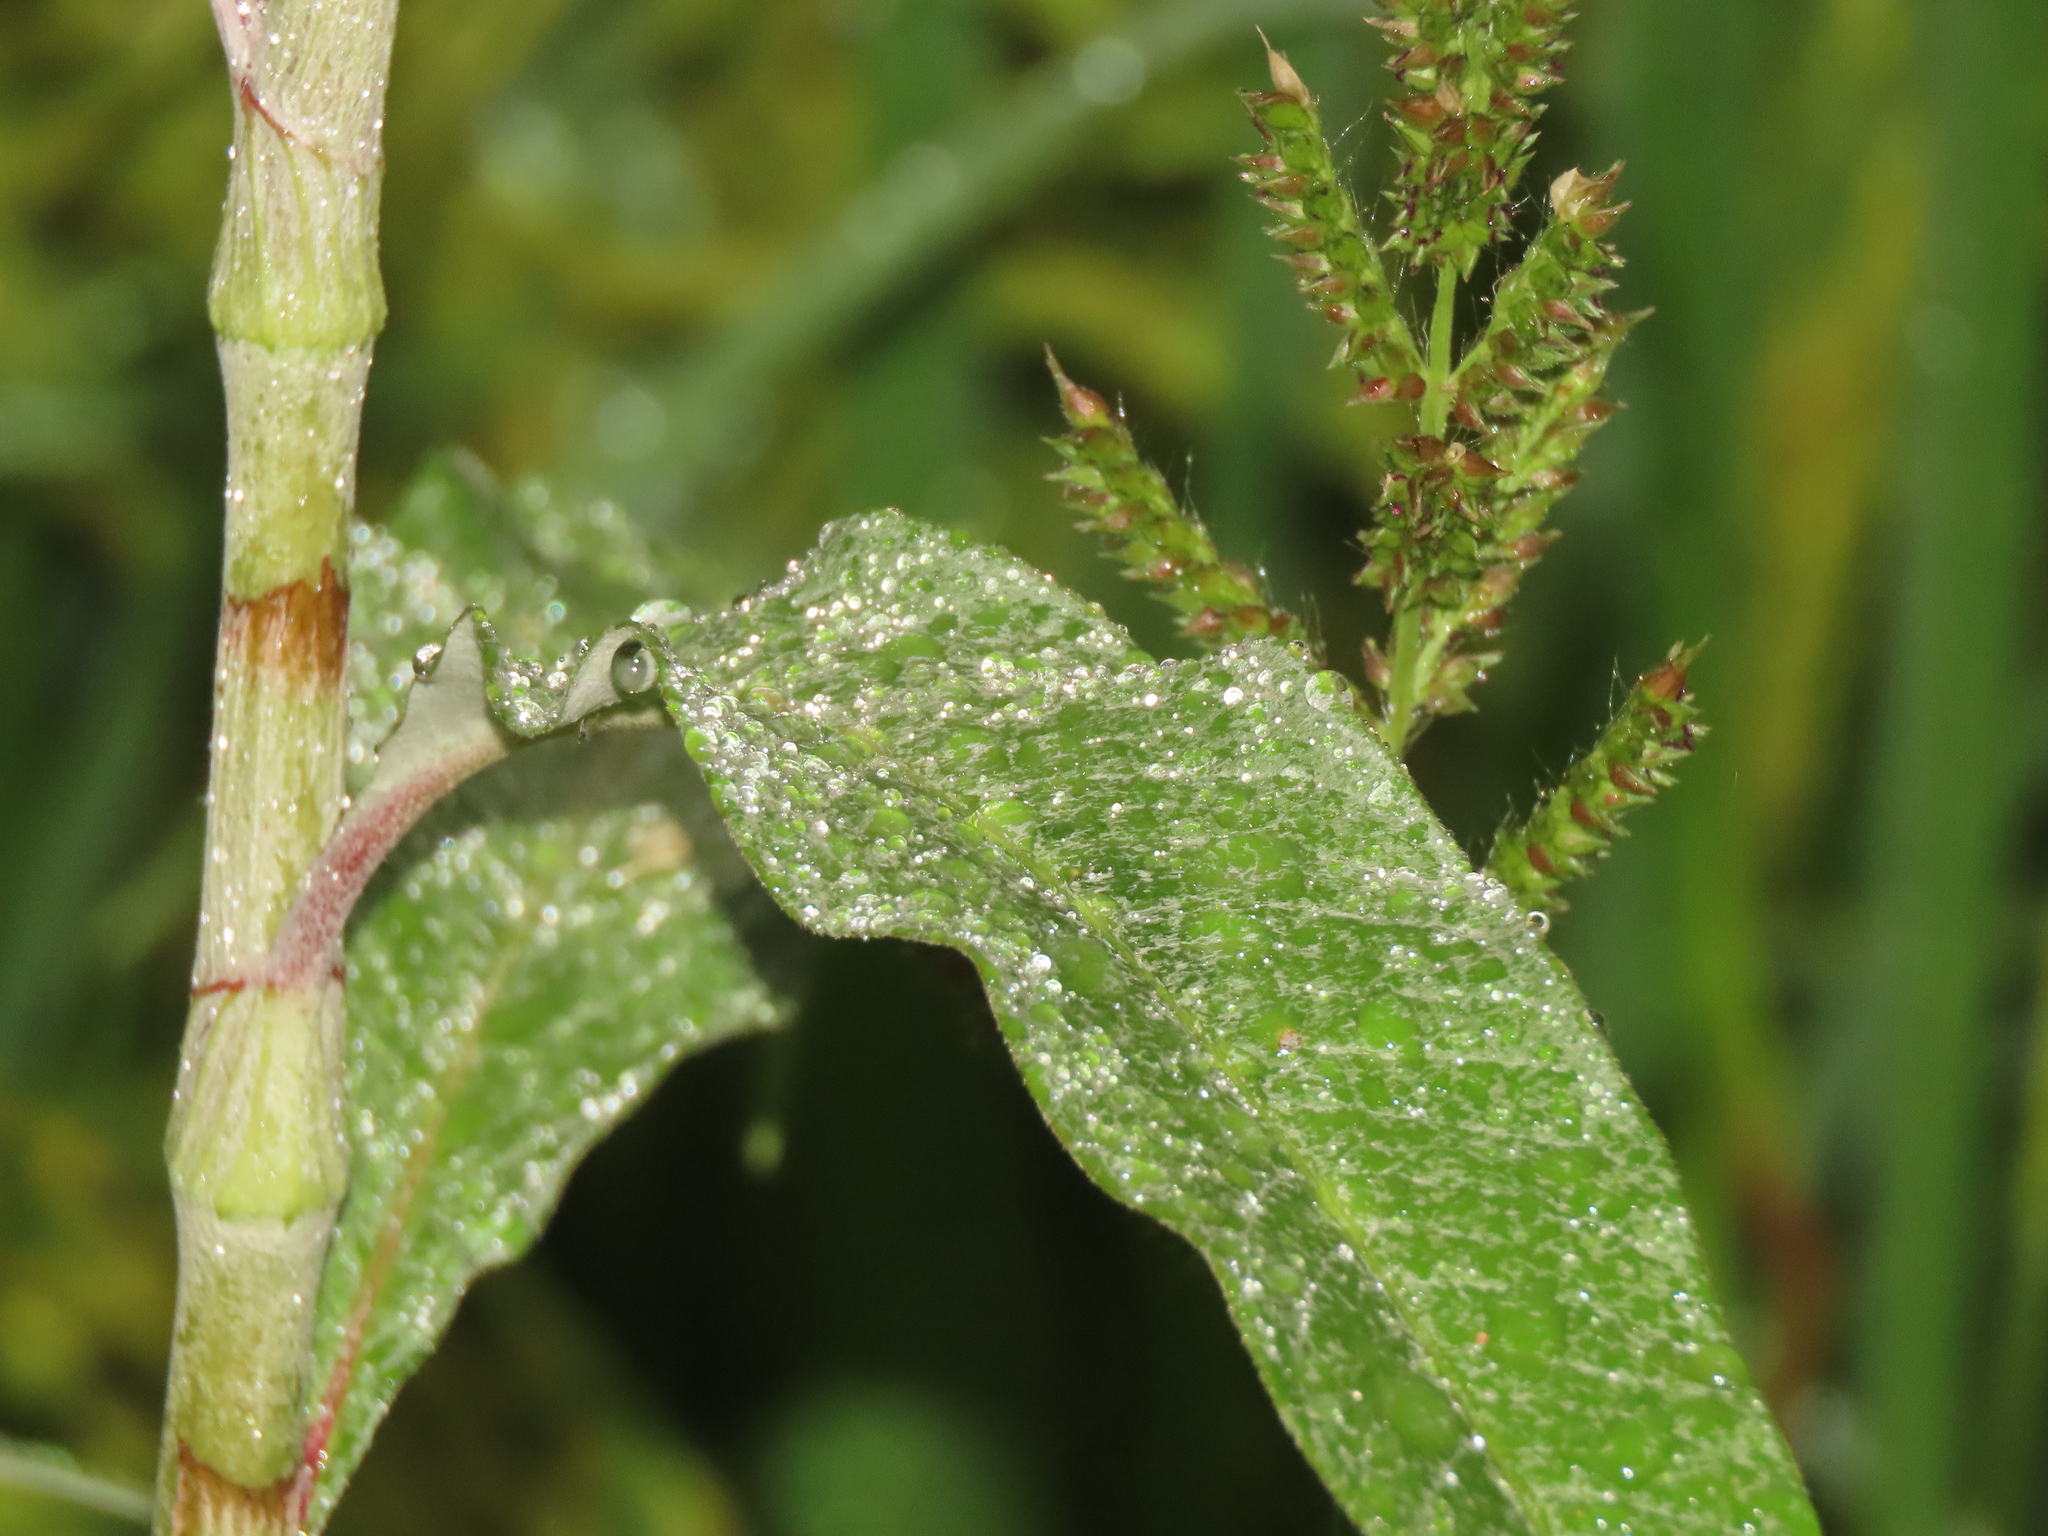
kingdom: Plantae
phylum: Tracheophyta
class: Magnoliopsida
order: Caryophyllales
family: Polygonaceae
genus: Persicaria
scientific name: Persicaria lanata
